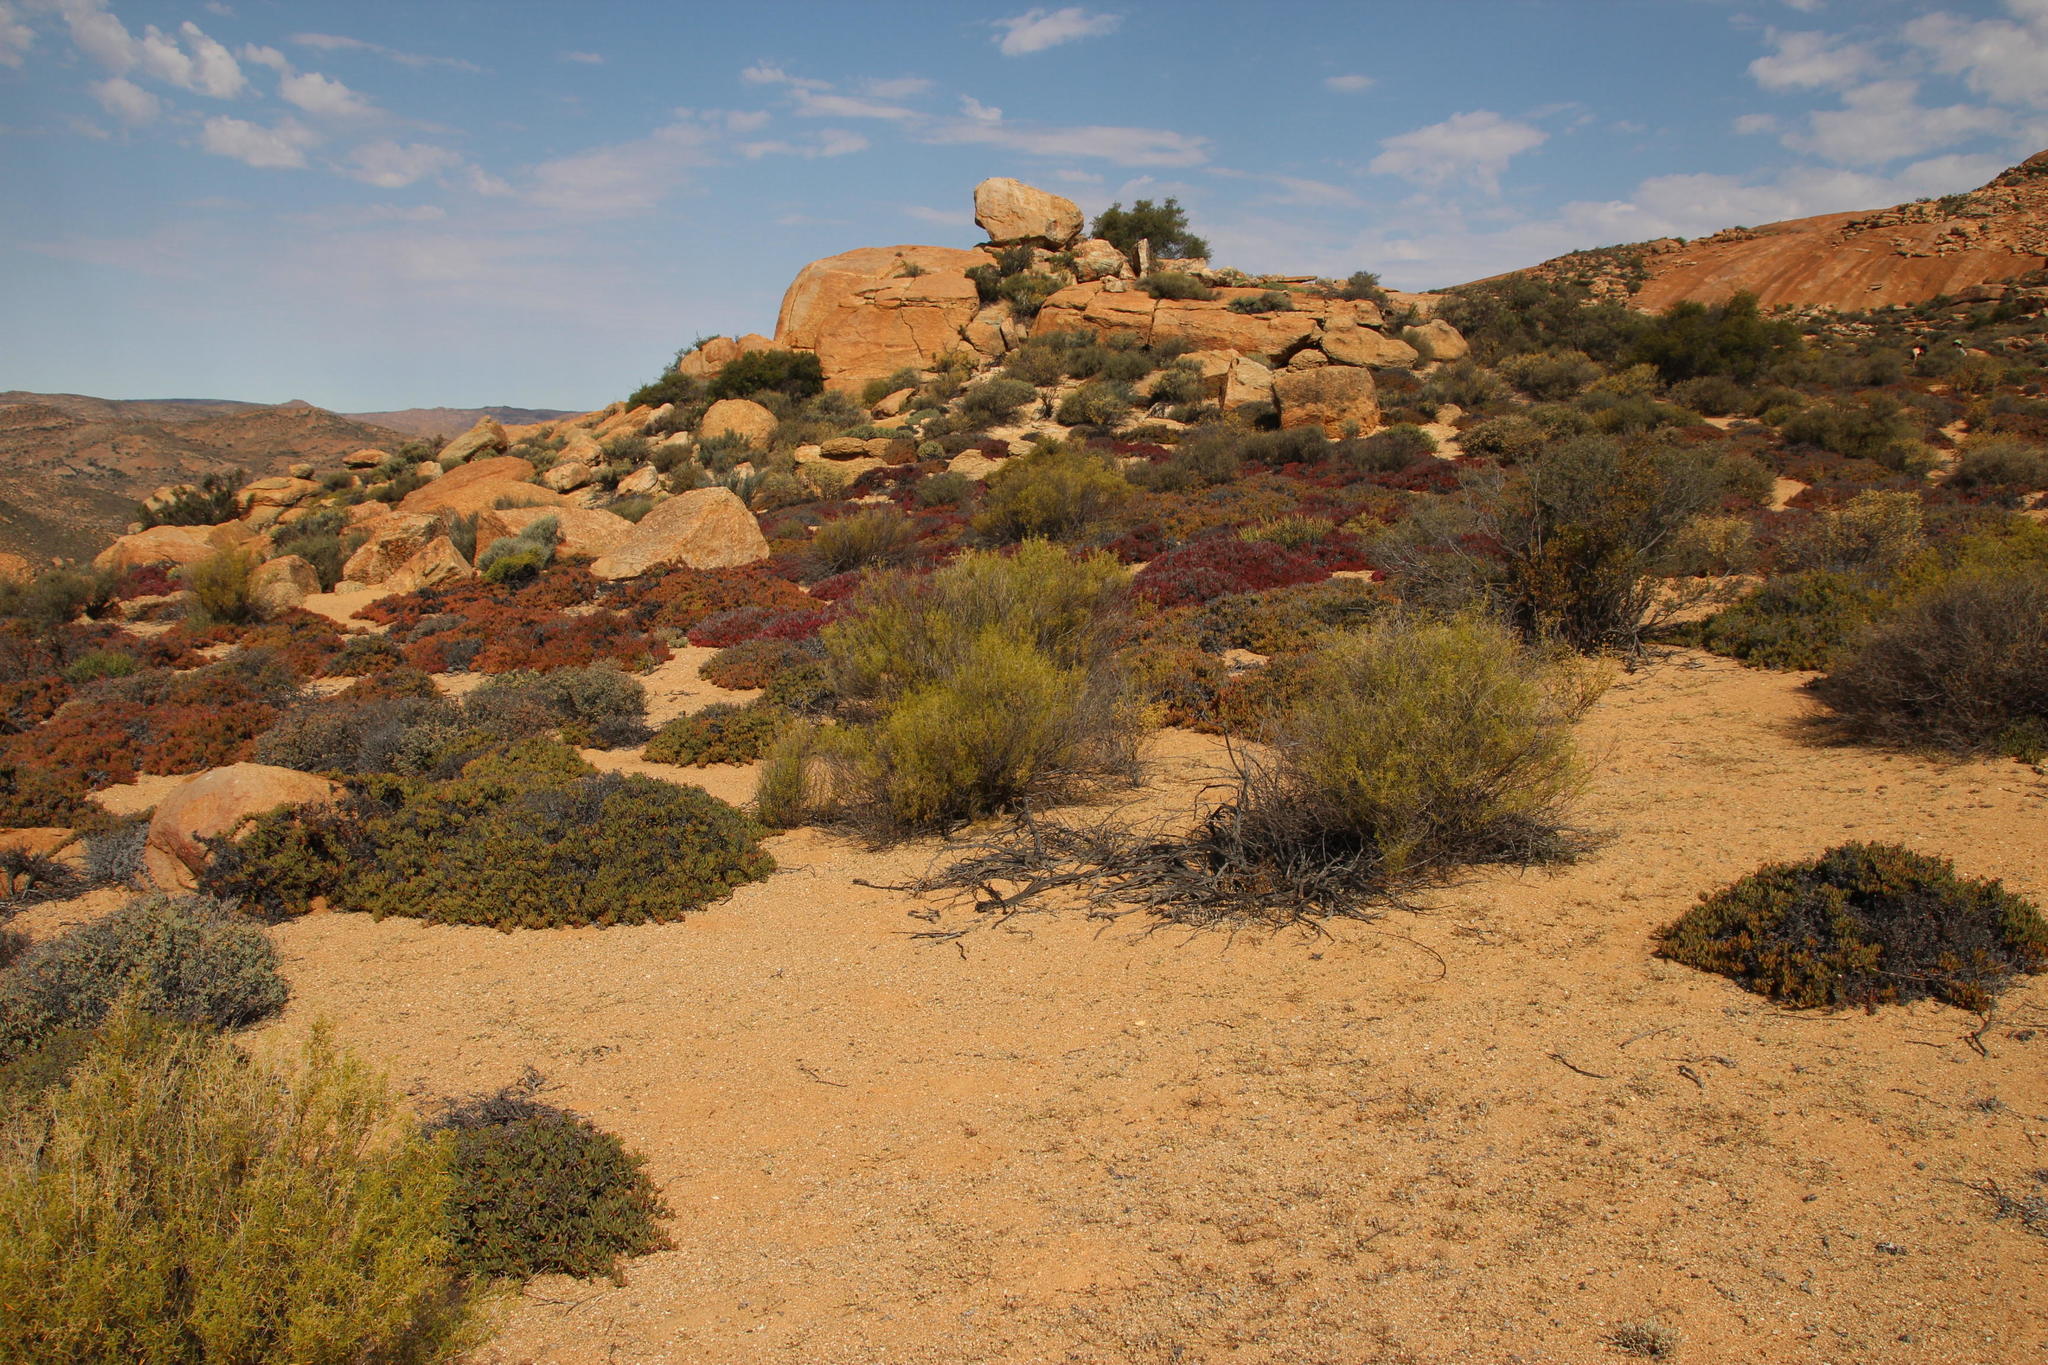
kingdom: Plantae
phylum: Tracheophyta
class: Magnoliopsida
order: Caryophyllales
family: Aizoaceae
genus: Aizoon
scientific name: Aizoon africanum
